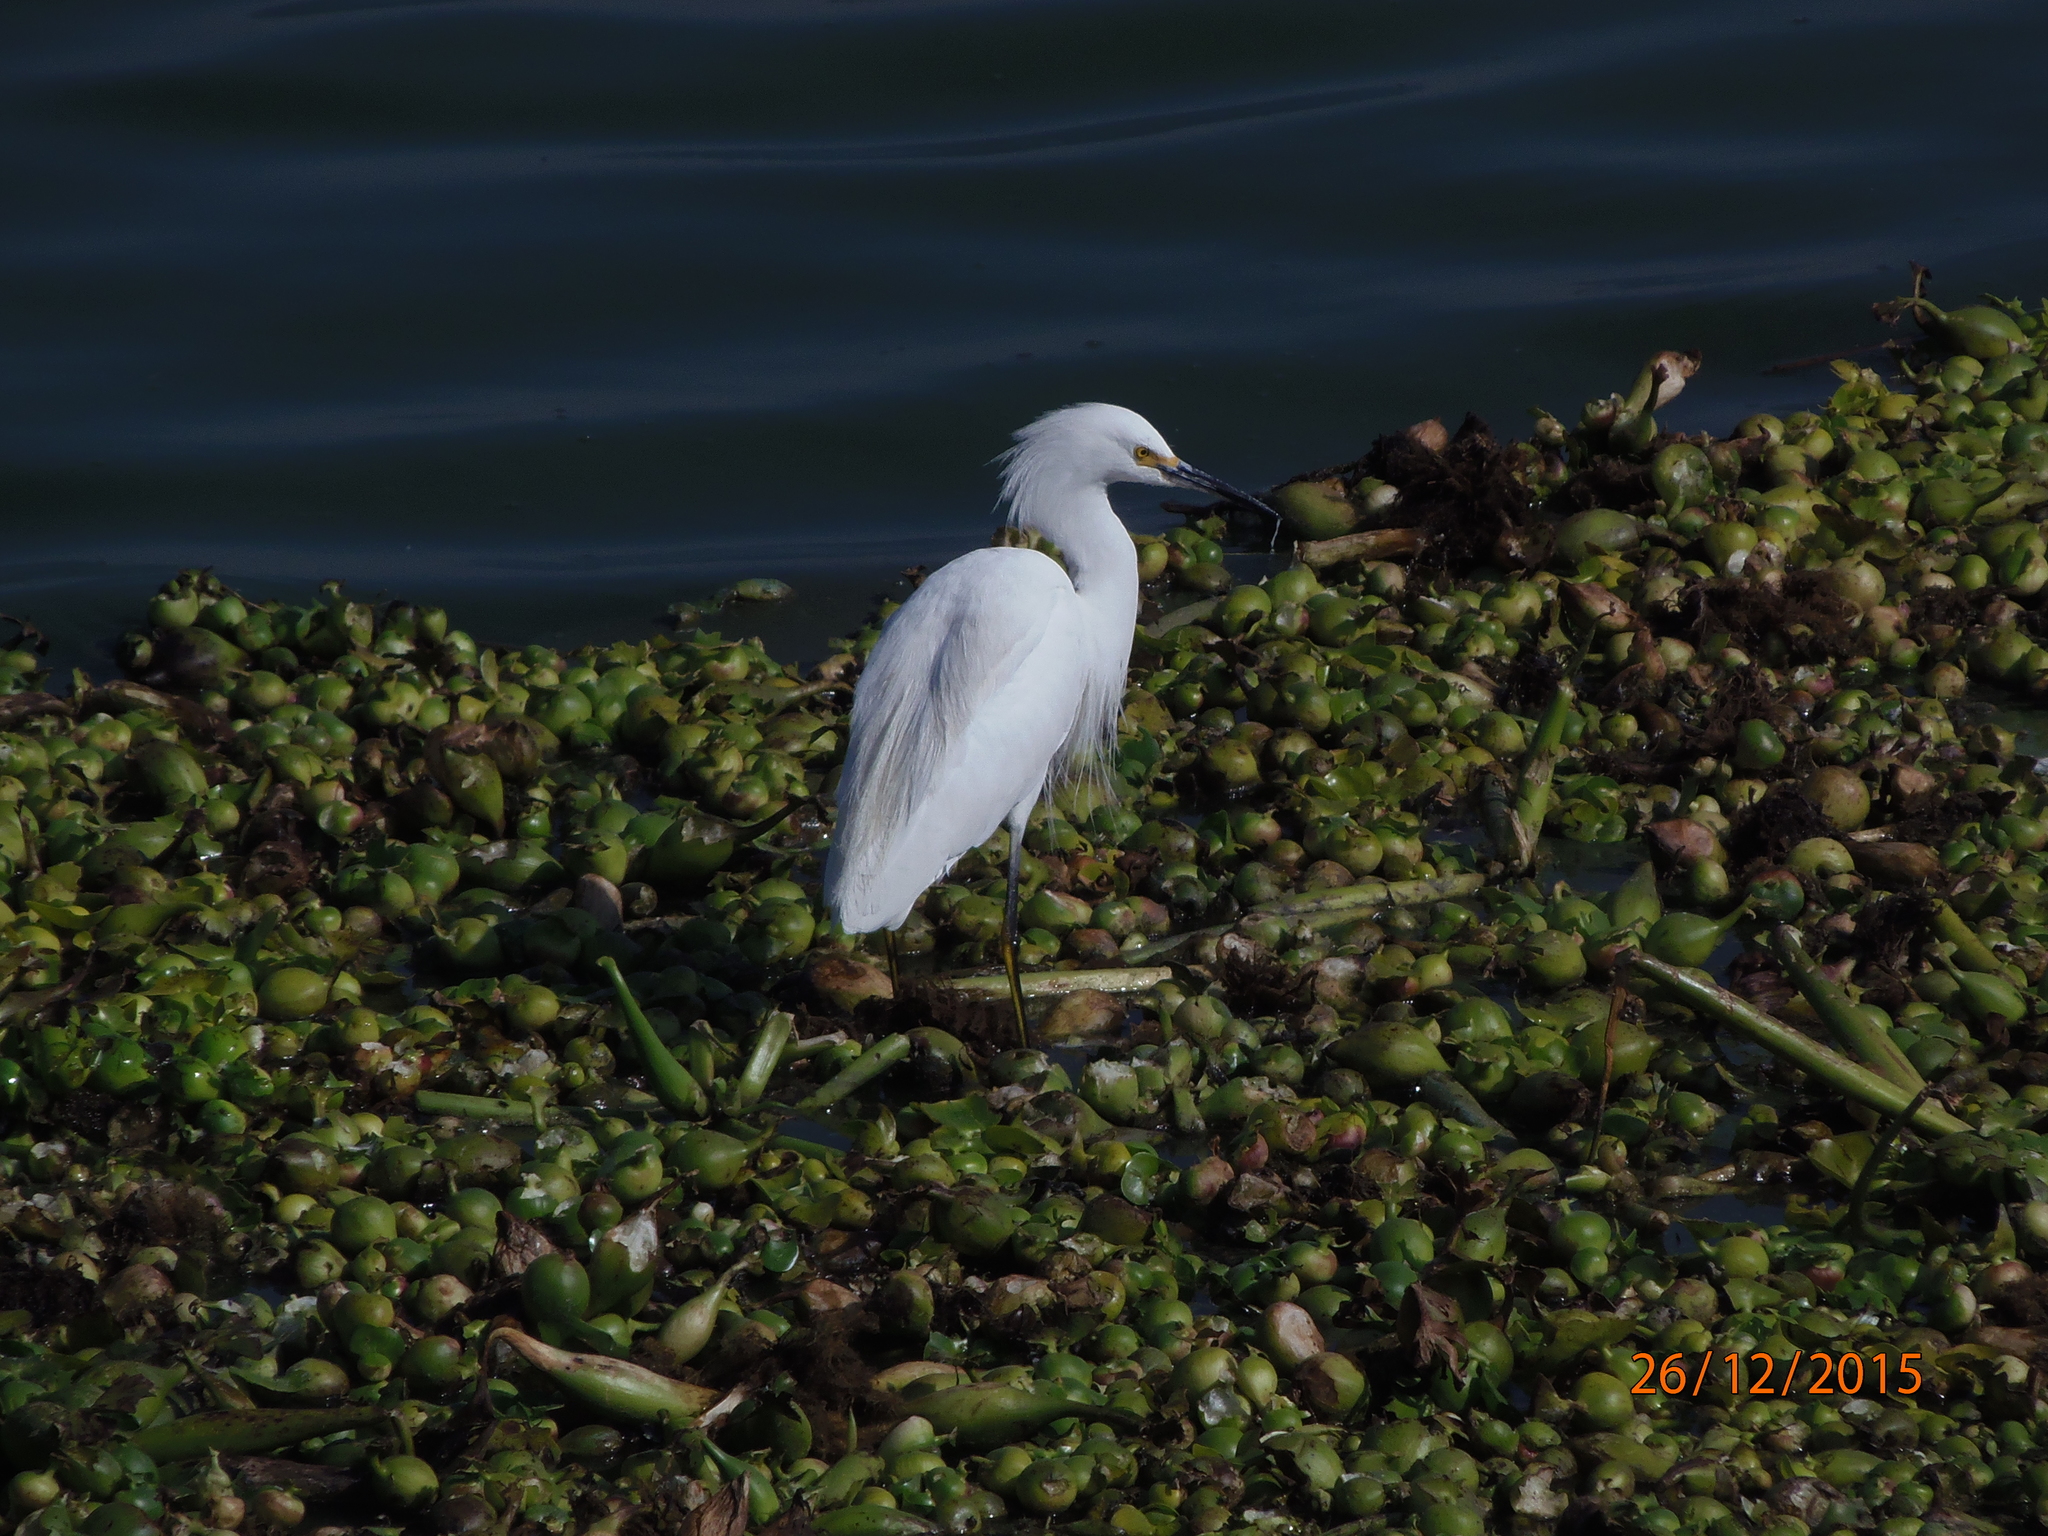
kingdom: Animalia
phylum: Chordata
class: Aves
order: Pelecaniformes
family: Ardeidae
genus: Egretta
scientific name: Egretta thula
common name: Snowy egret
